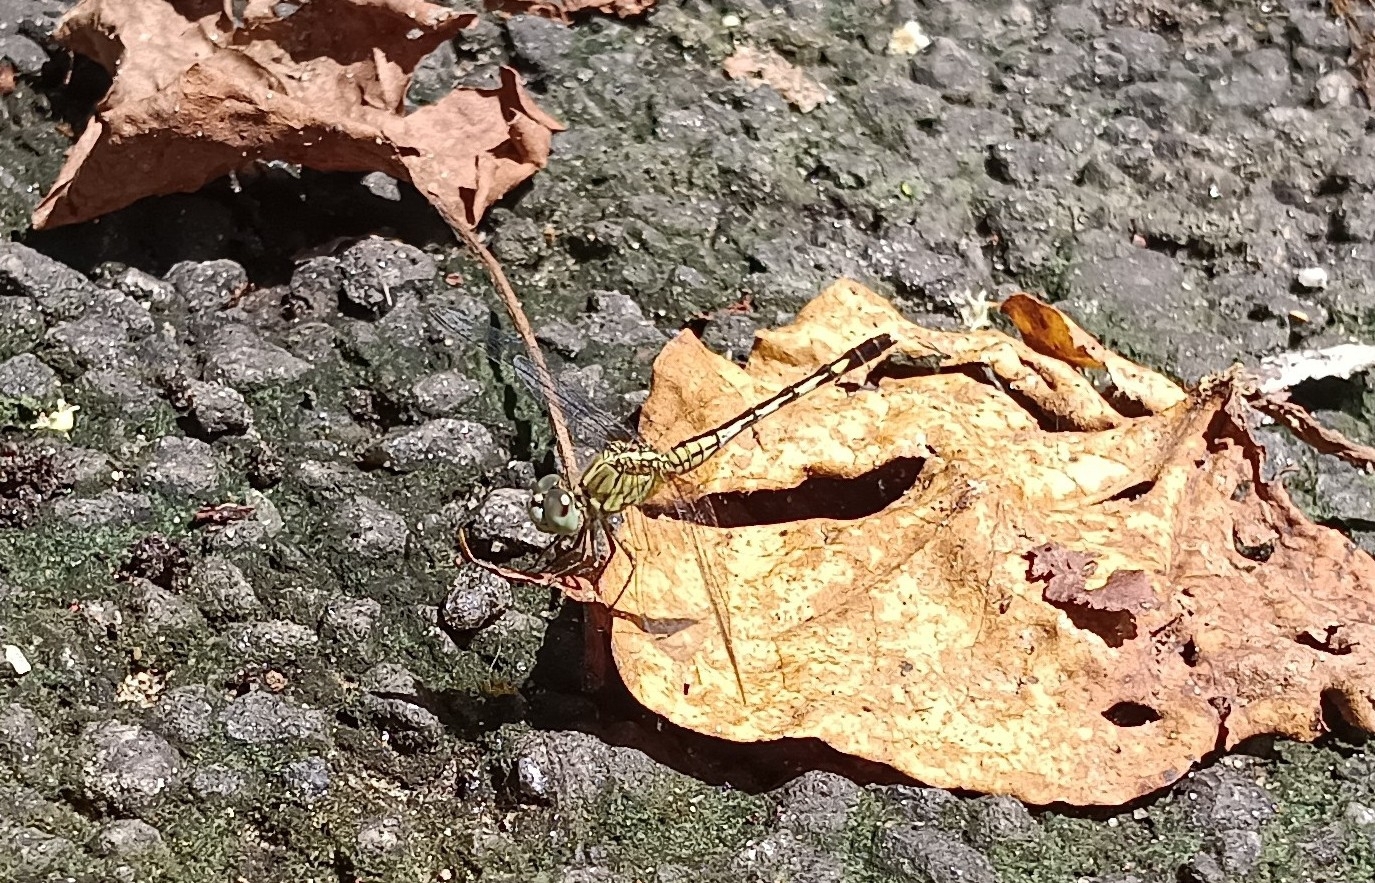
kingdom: Animalia
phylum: Arthropoda
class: Insecta
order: Odonata
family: Libellulidae
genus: Diplacodes
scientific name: Diplacodes trivialis
